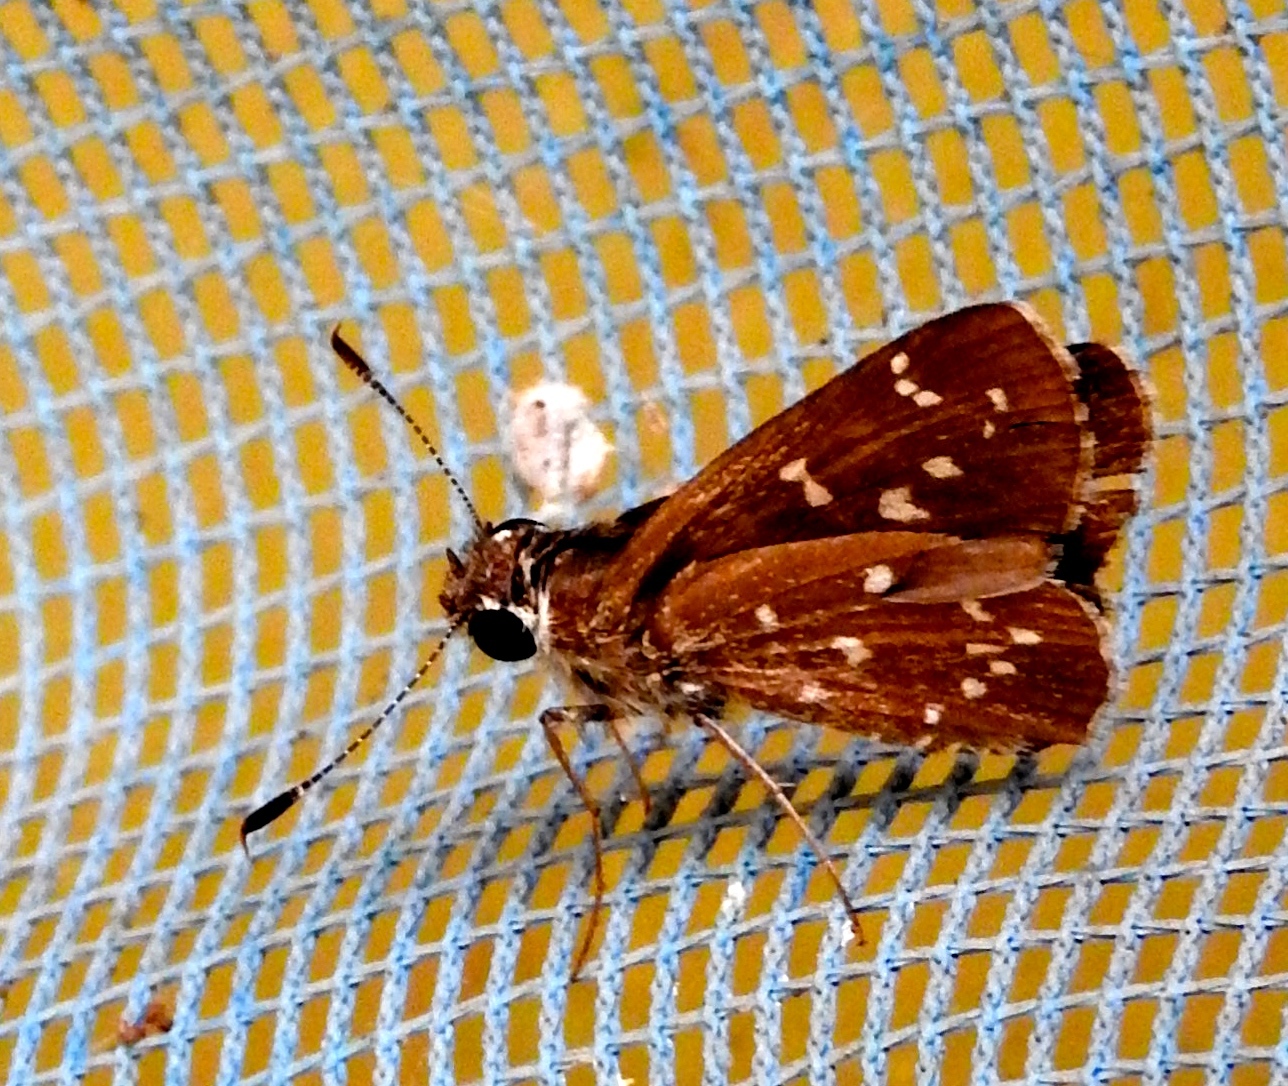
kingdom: Animalia
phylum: Arthropoda
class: Insecta
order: Lepidoptera
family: Hesperiidae
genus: Mastor
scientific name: Mastor tolteca
